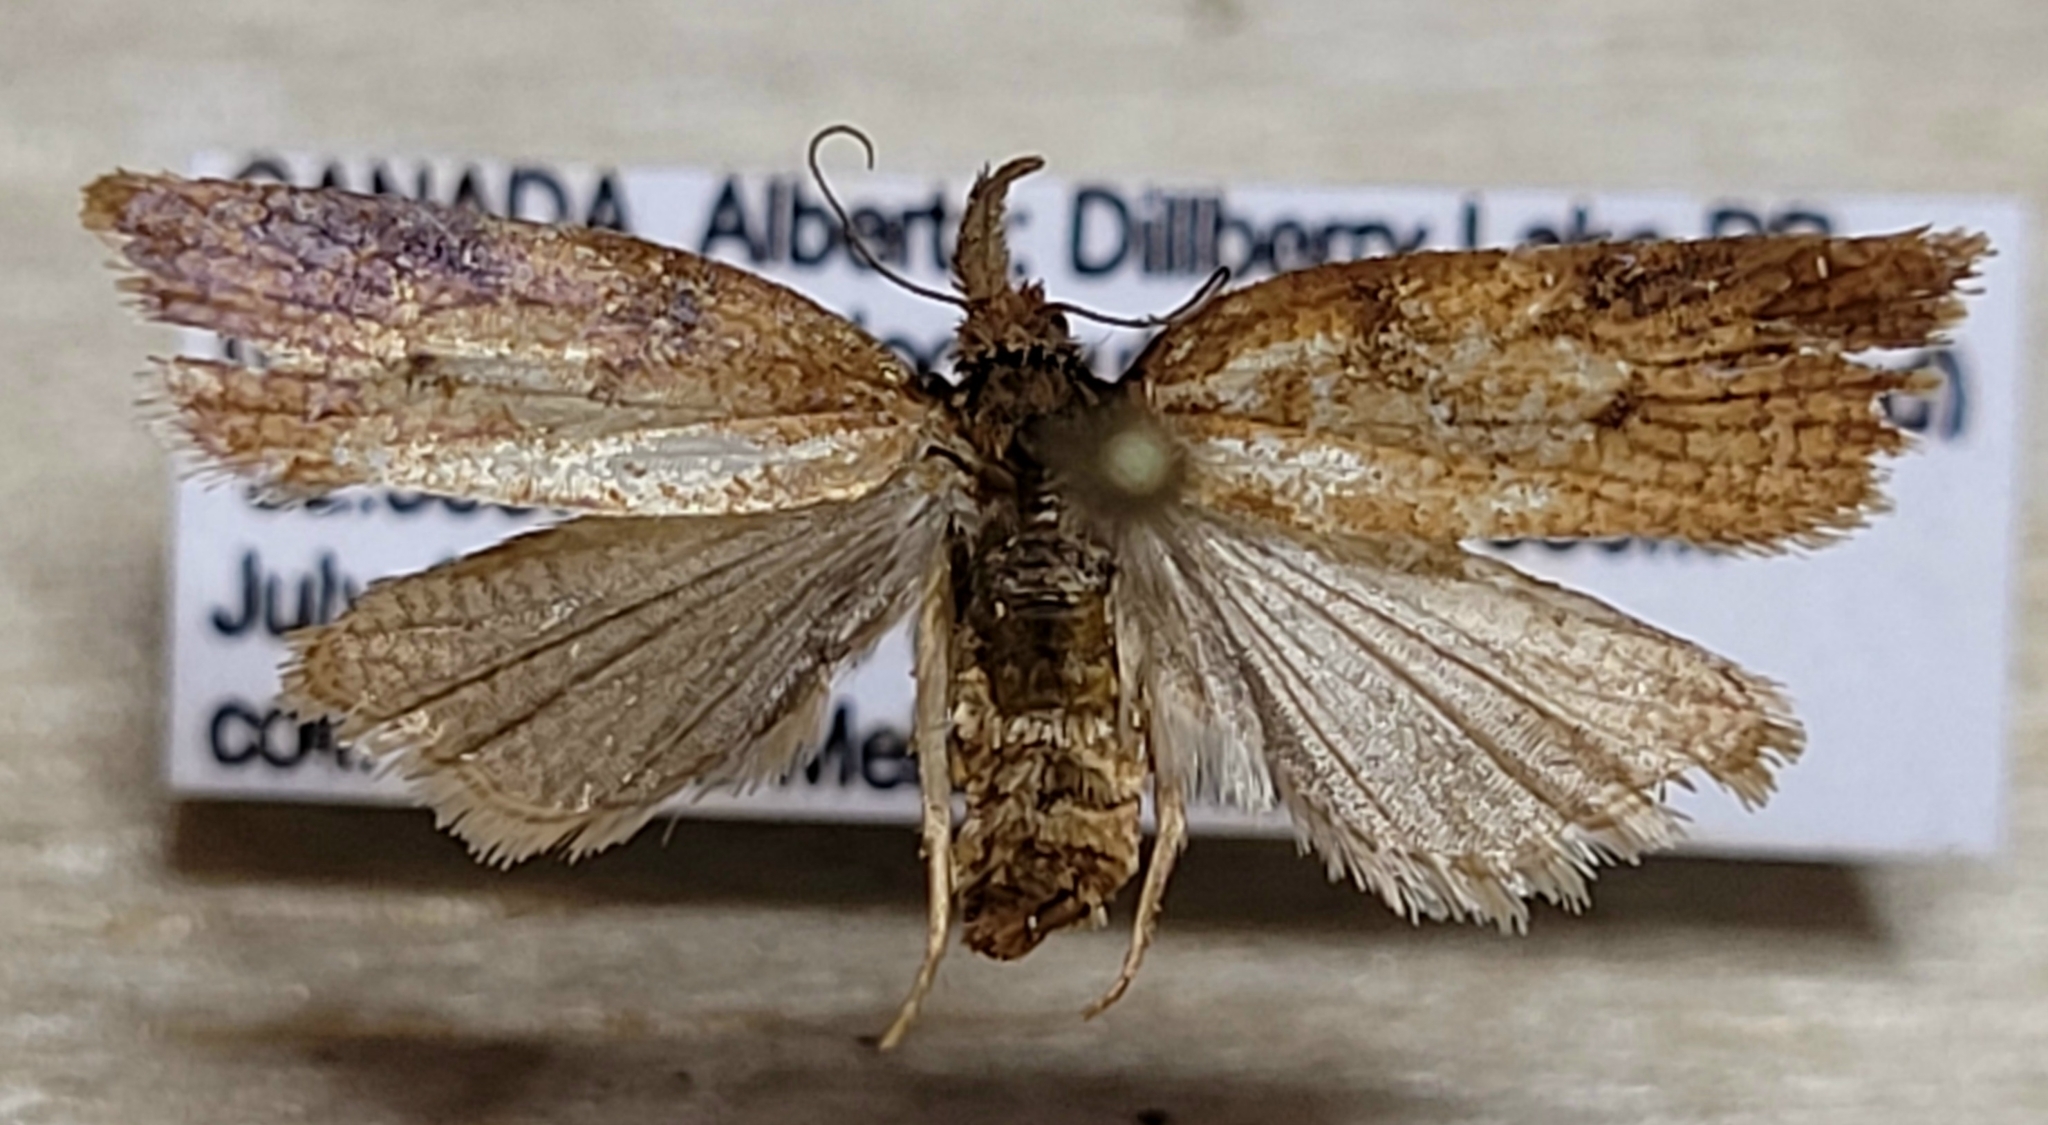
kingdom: Animalia
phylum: Arthropoda
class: Insecta
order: Lepidoptera
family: Tortricidae
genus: Sparganothis
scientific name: Sparganothis boweri
